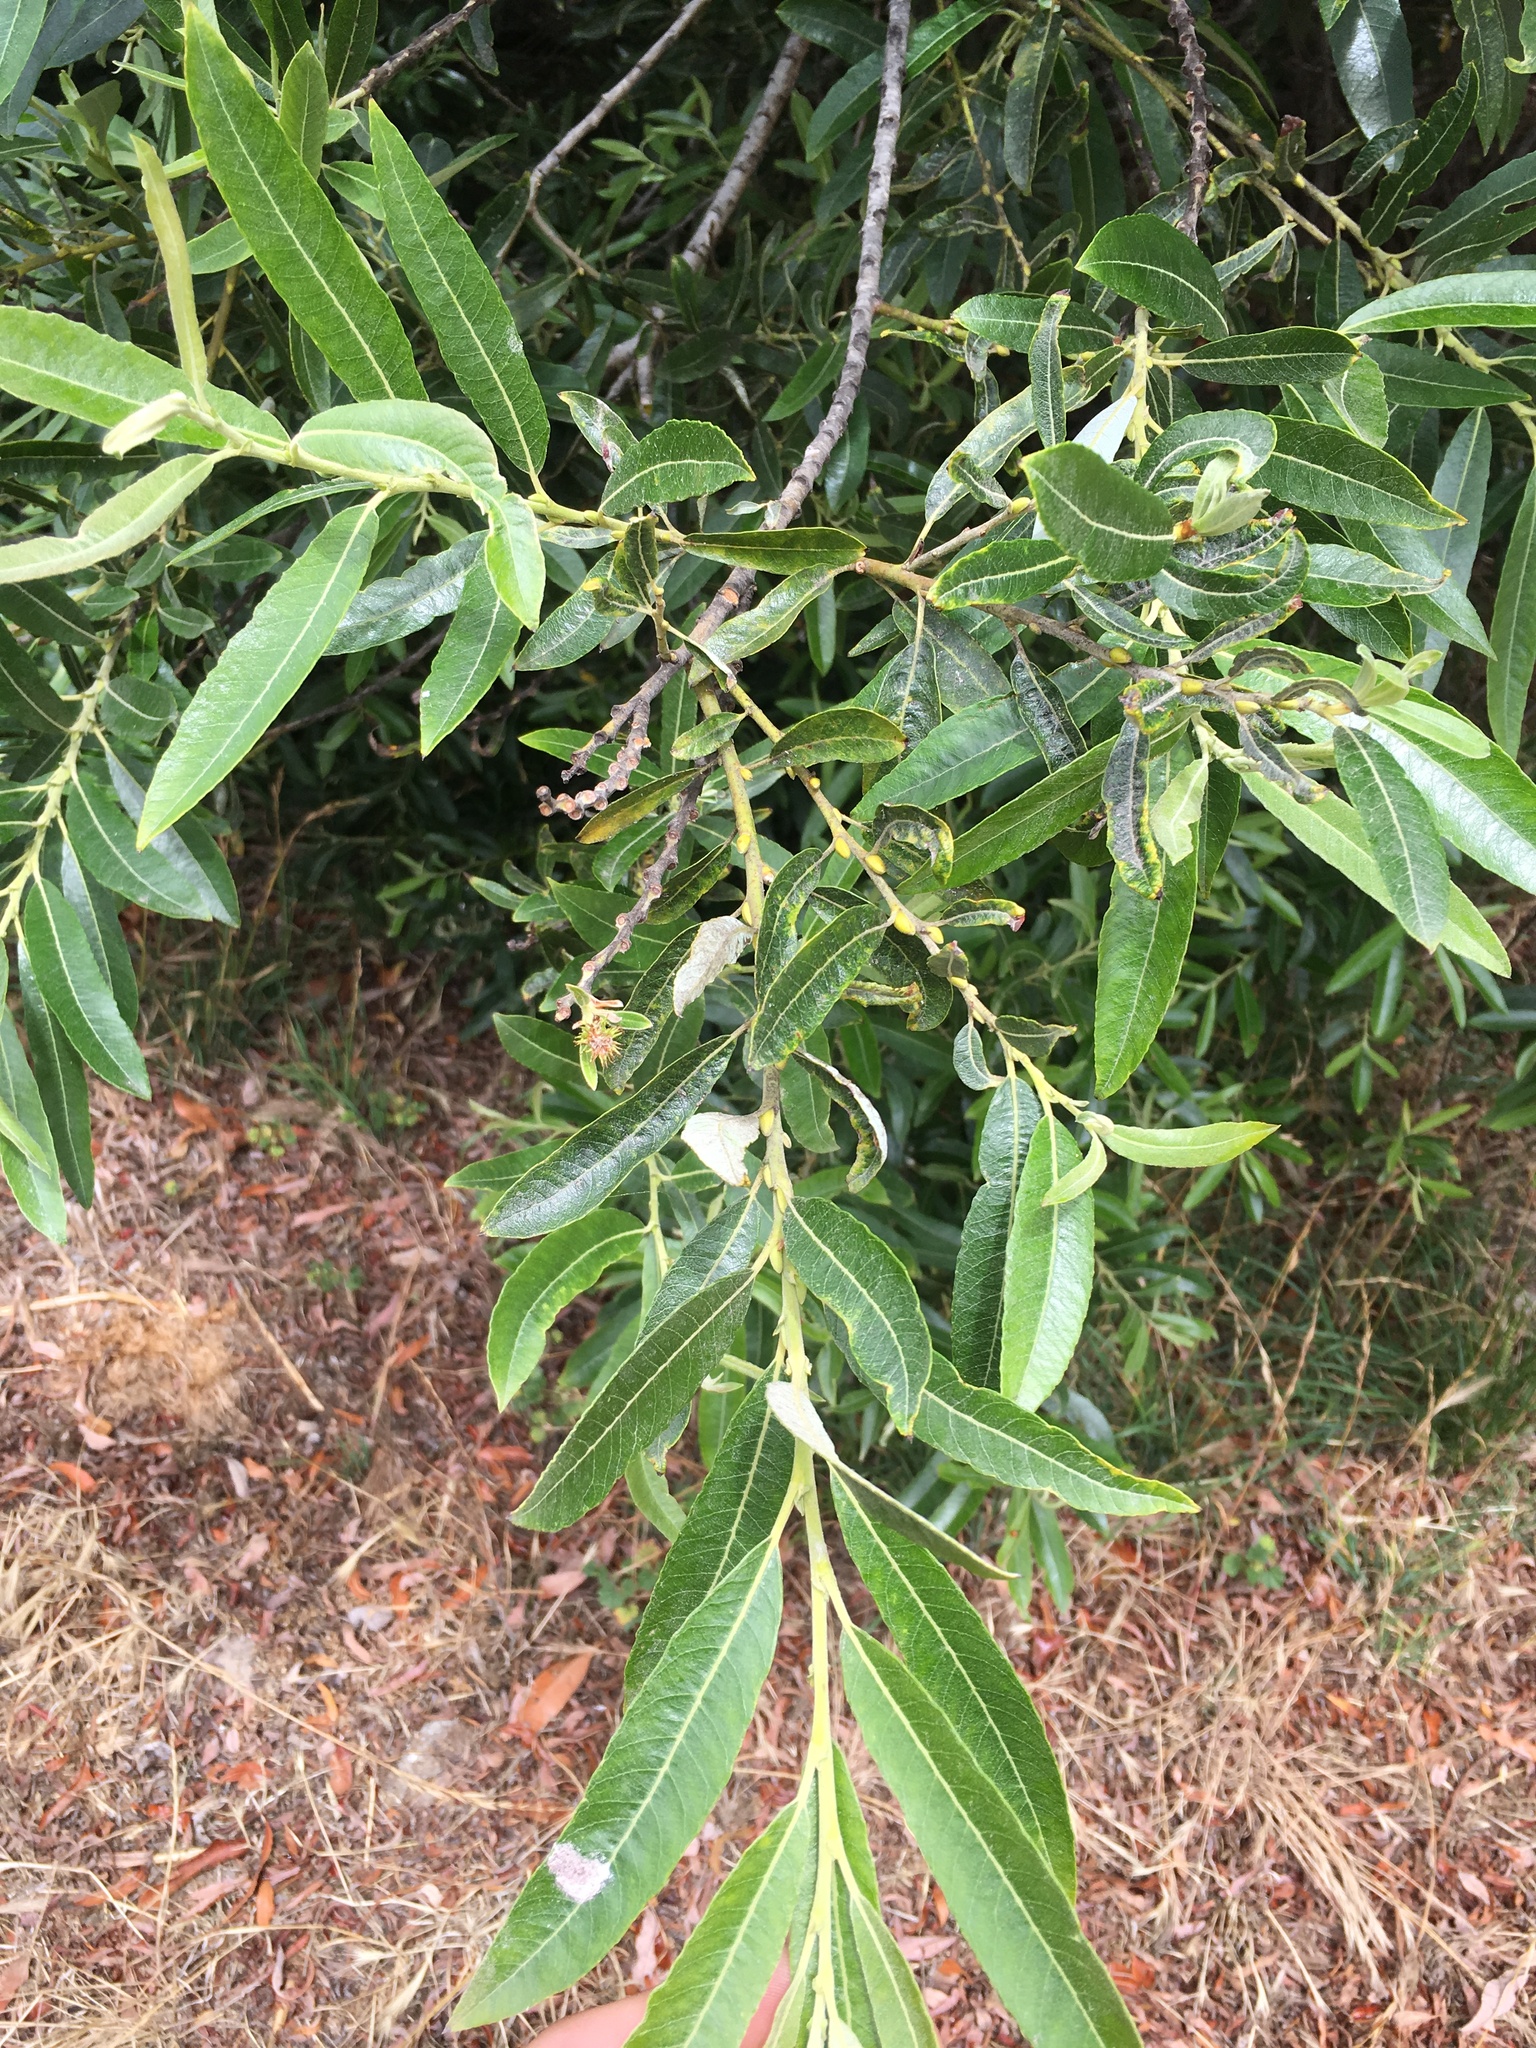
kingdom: Plantae
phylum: Tracheophyta
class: Magnoliopsida
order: Malpighiales
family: Salicaceae
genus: Salix
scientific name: Salix lasiolepis
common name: Arroyo willow
